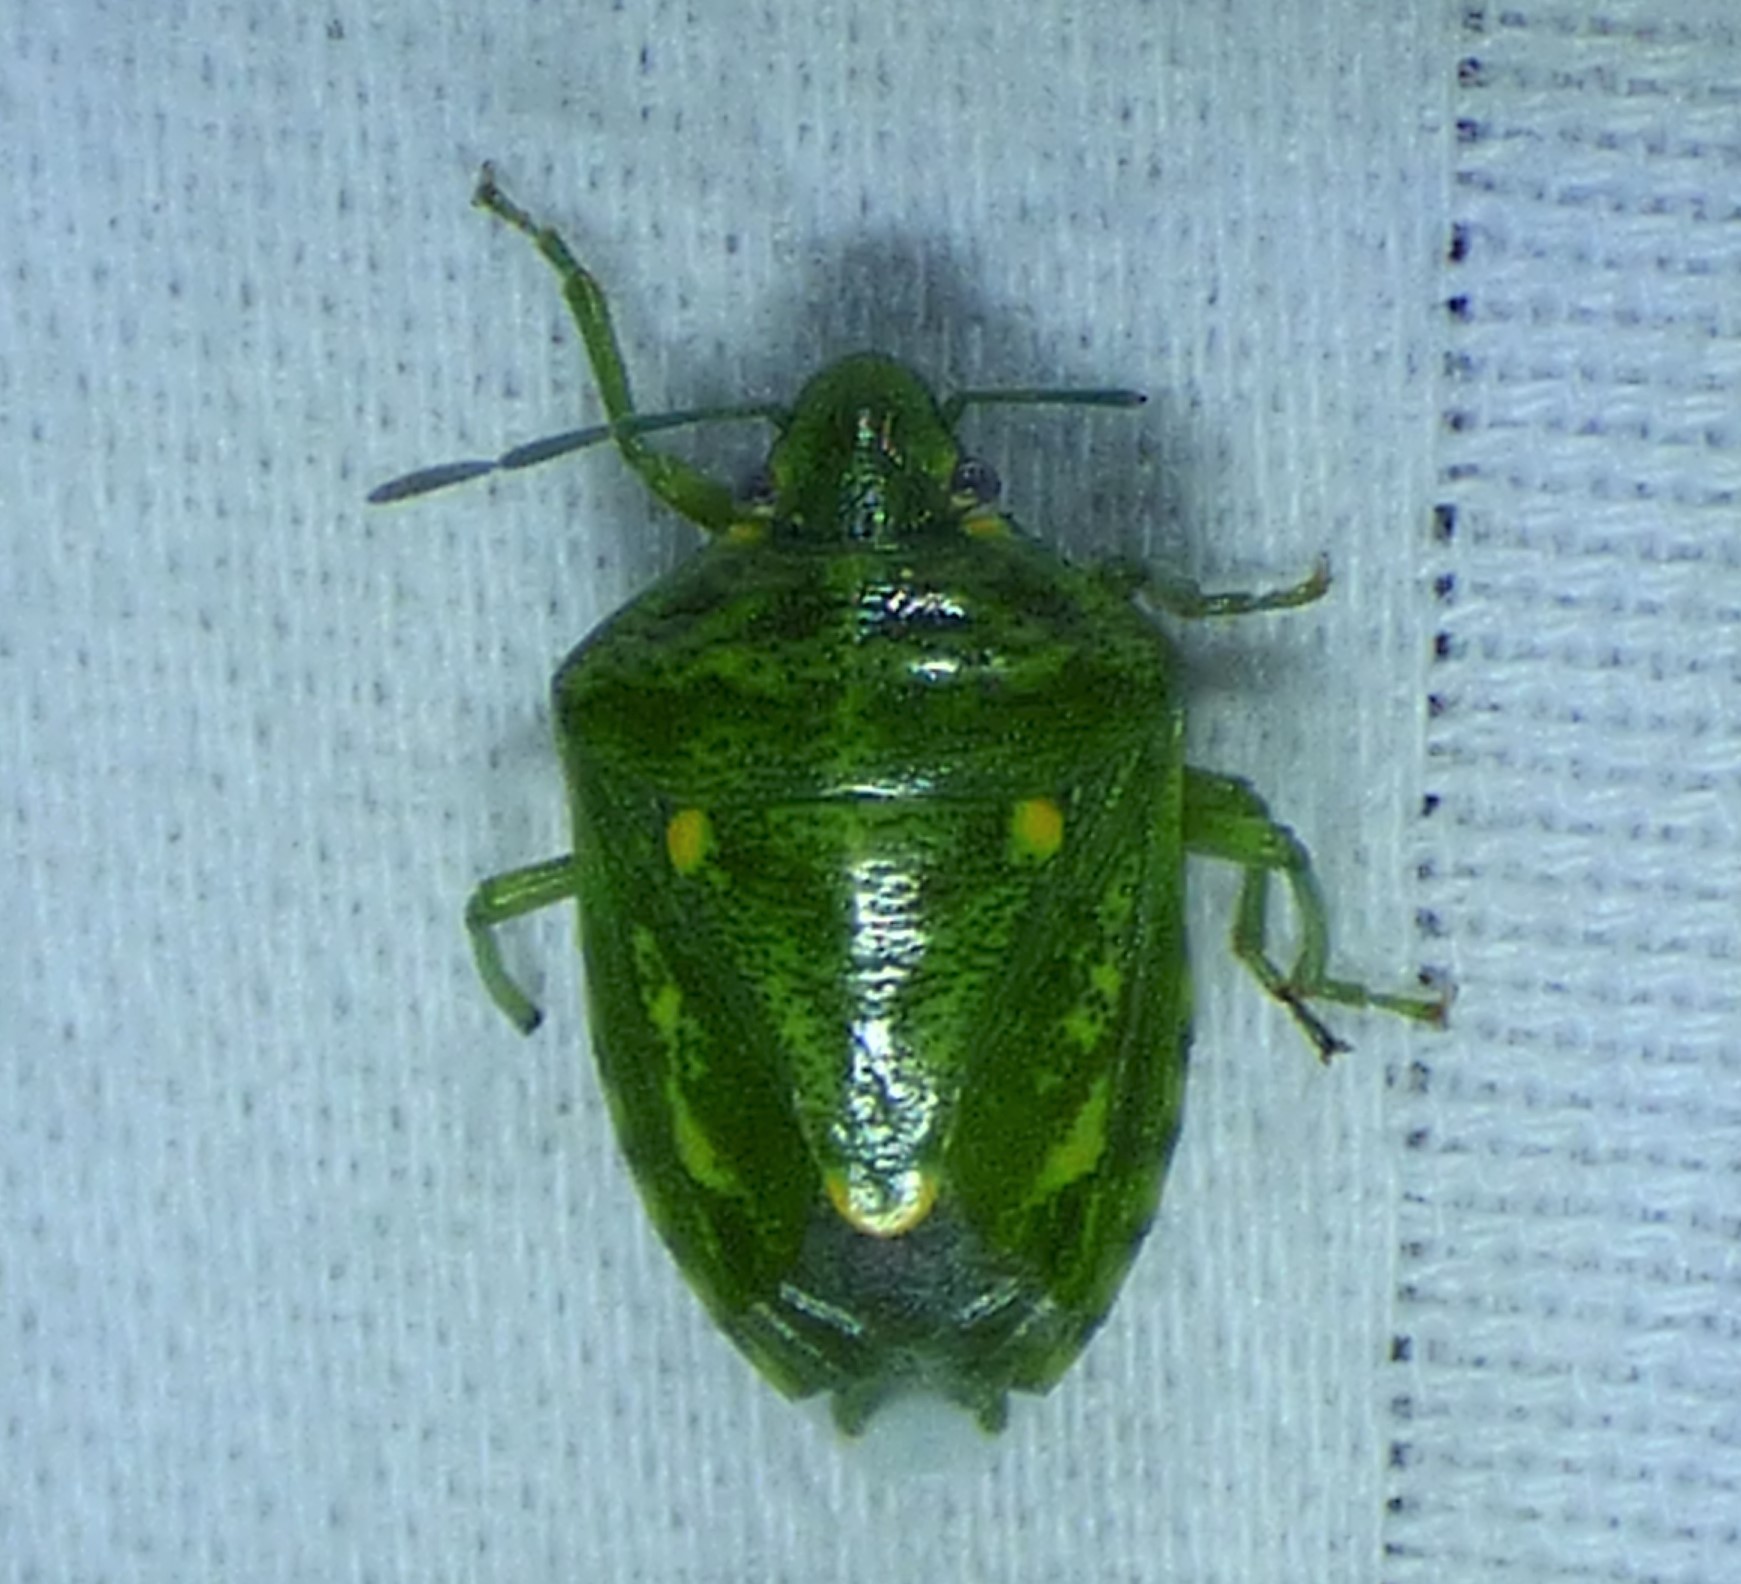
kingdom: Animalia
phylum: Arthropoda
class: Insecta
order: Hemiptera
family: Pentatomidae
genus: Banasa
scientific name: Banasa euchlora
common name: Cedar berry bug
